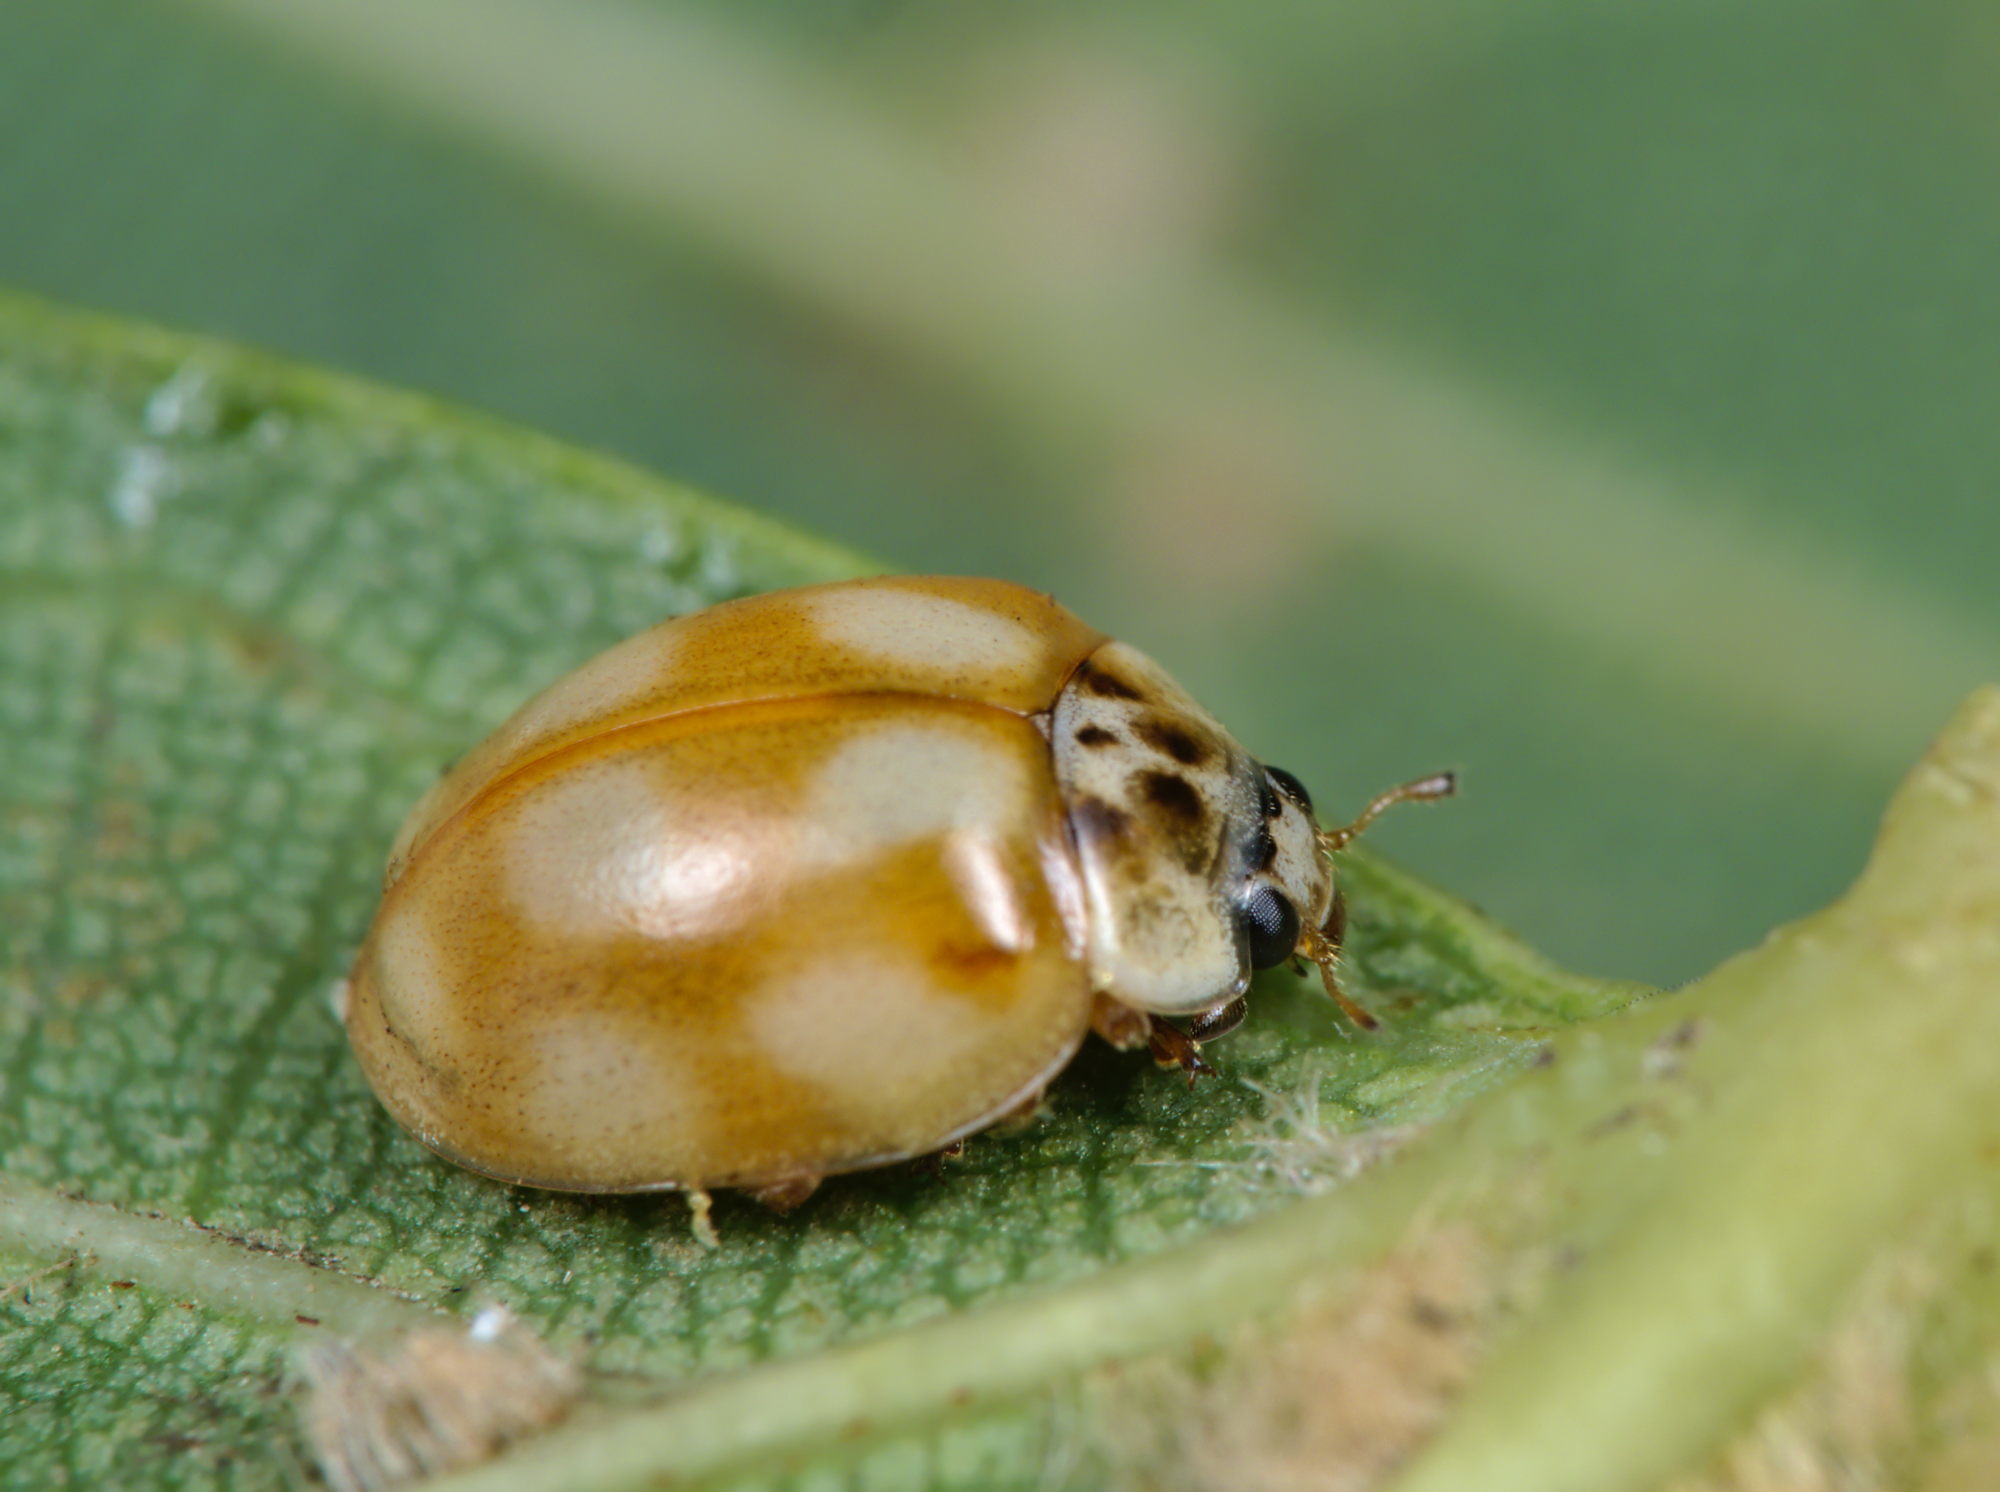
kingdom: Animalia
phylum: Arthropoda
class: Insecta
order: Coleoptera
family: Coccinellidae
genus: Adalia
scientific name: Adalia decempunctata
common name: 10-spot ladybird
